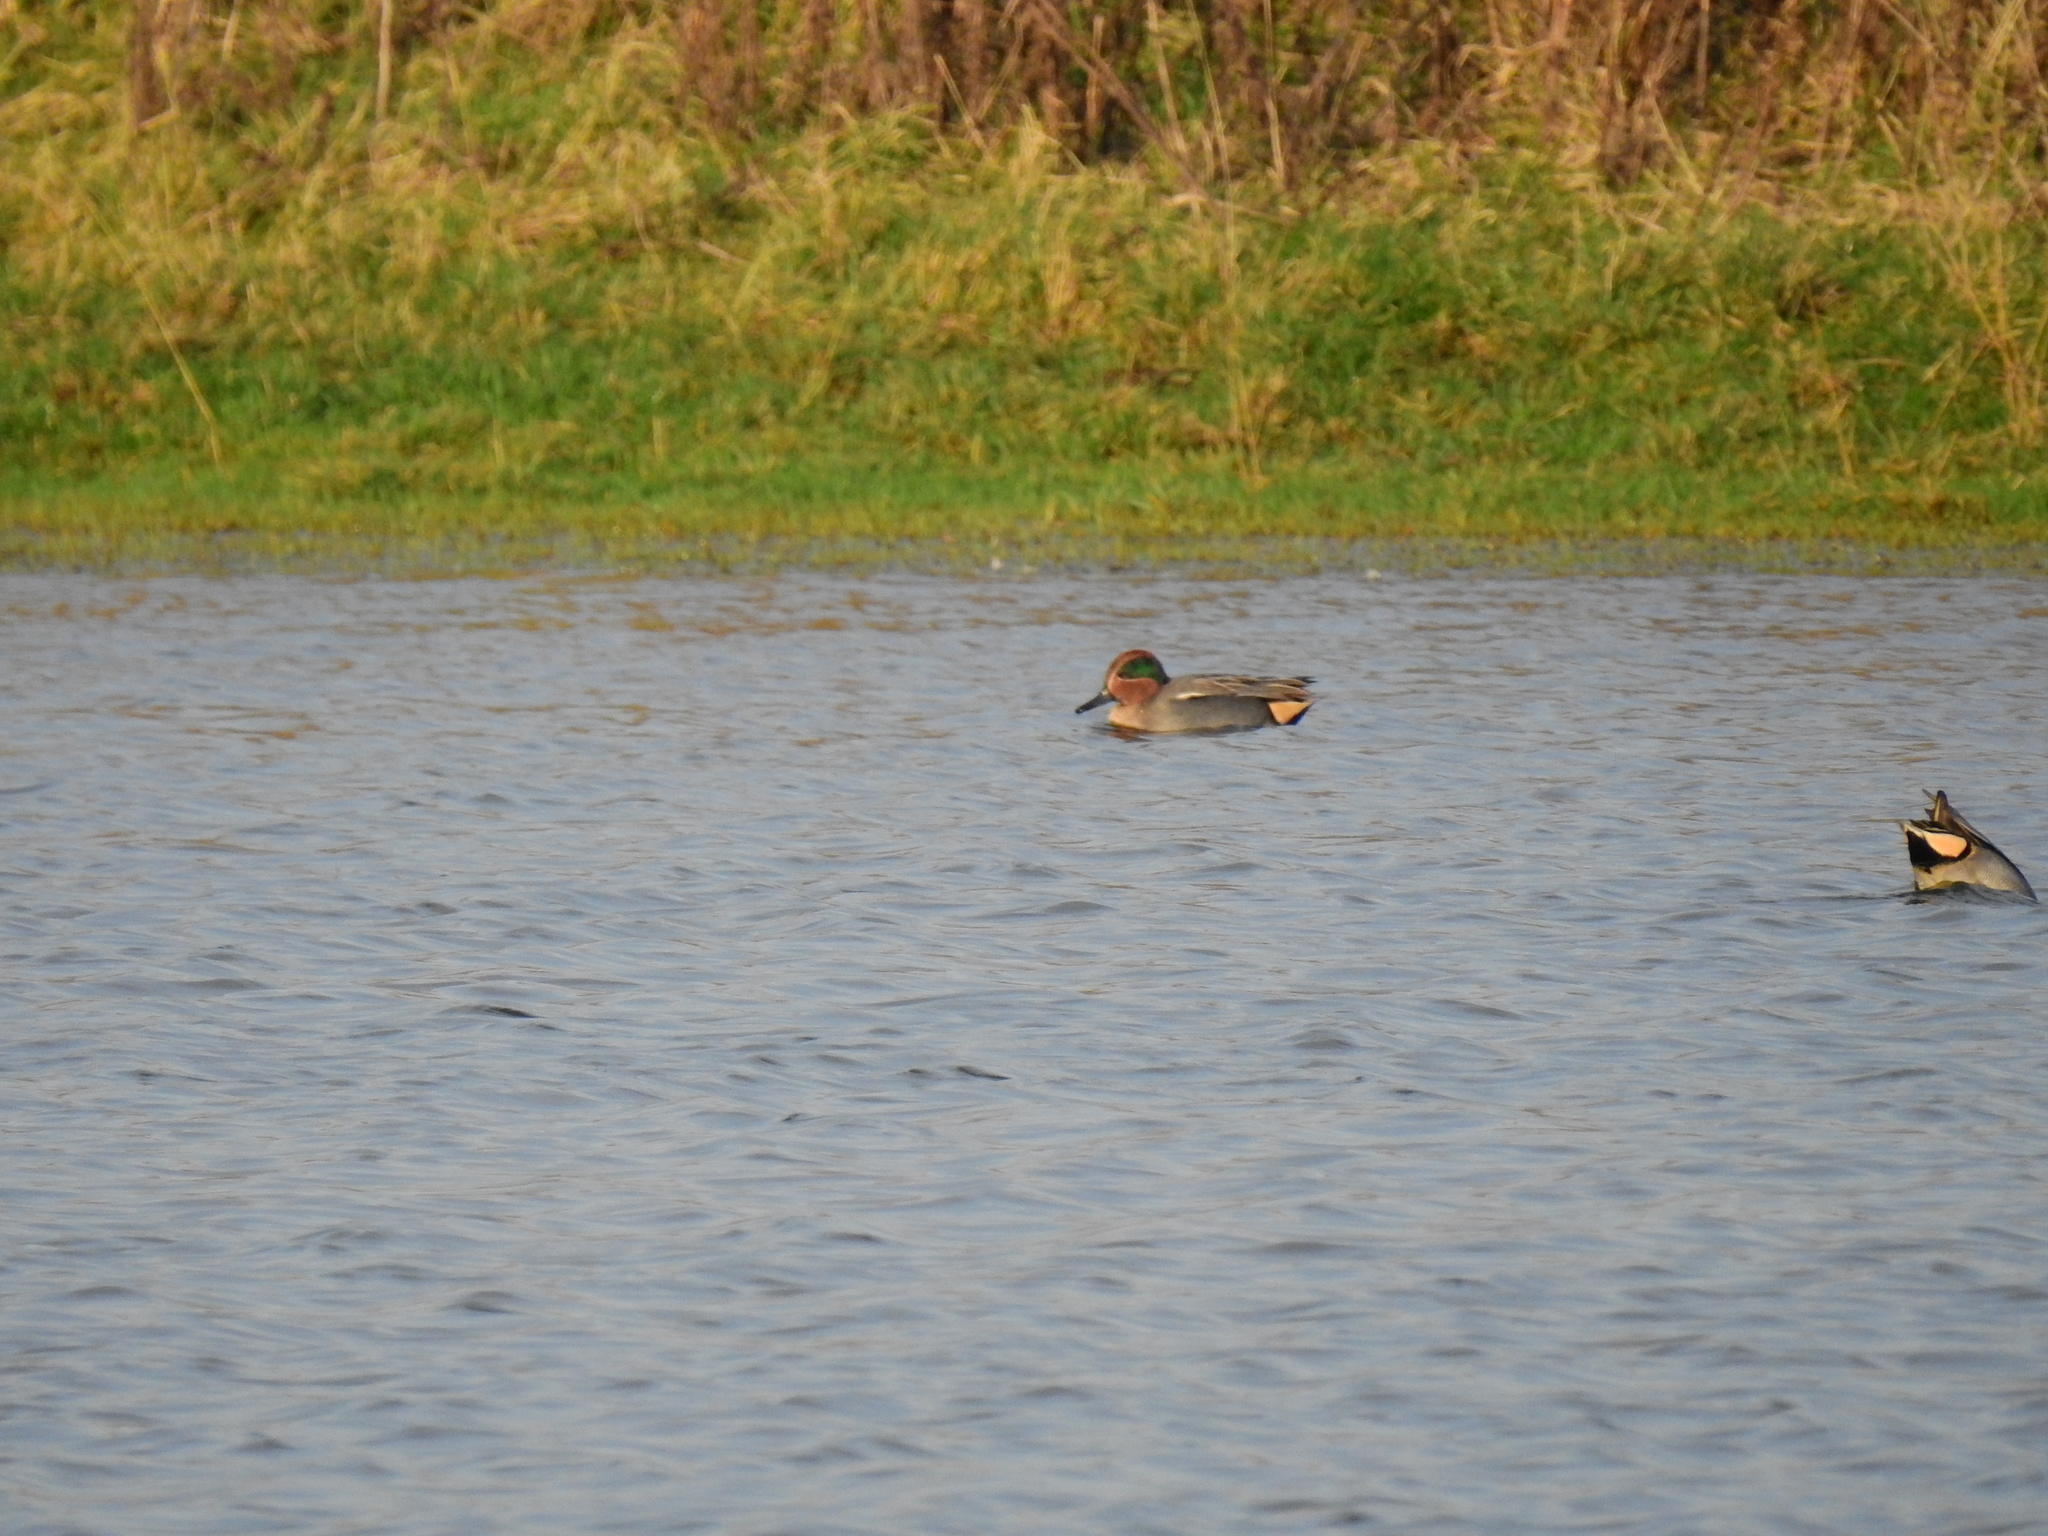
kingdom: Animalia
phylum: Chordata
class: Aves
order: Anseriformes
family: Anatidae
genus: Anas
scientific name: Anas crecca
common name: Eurasian teal
